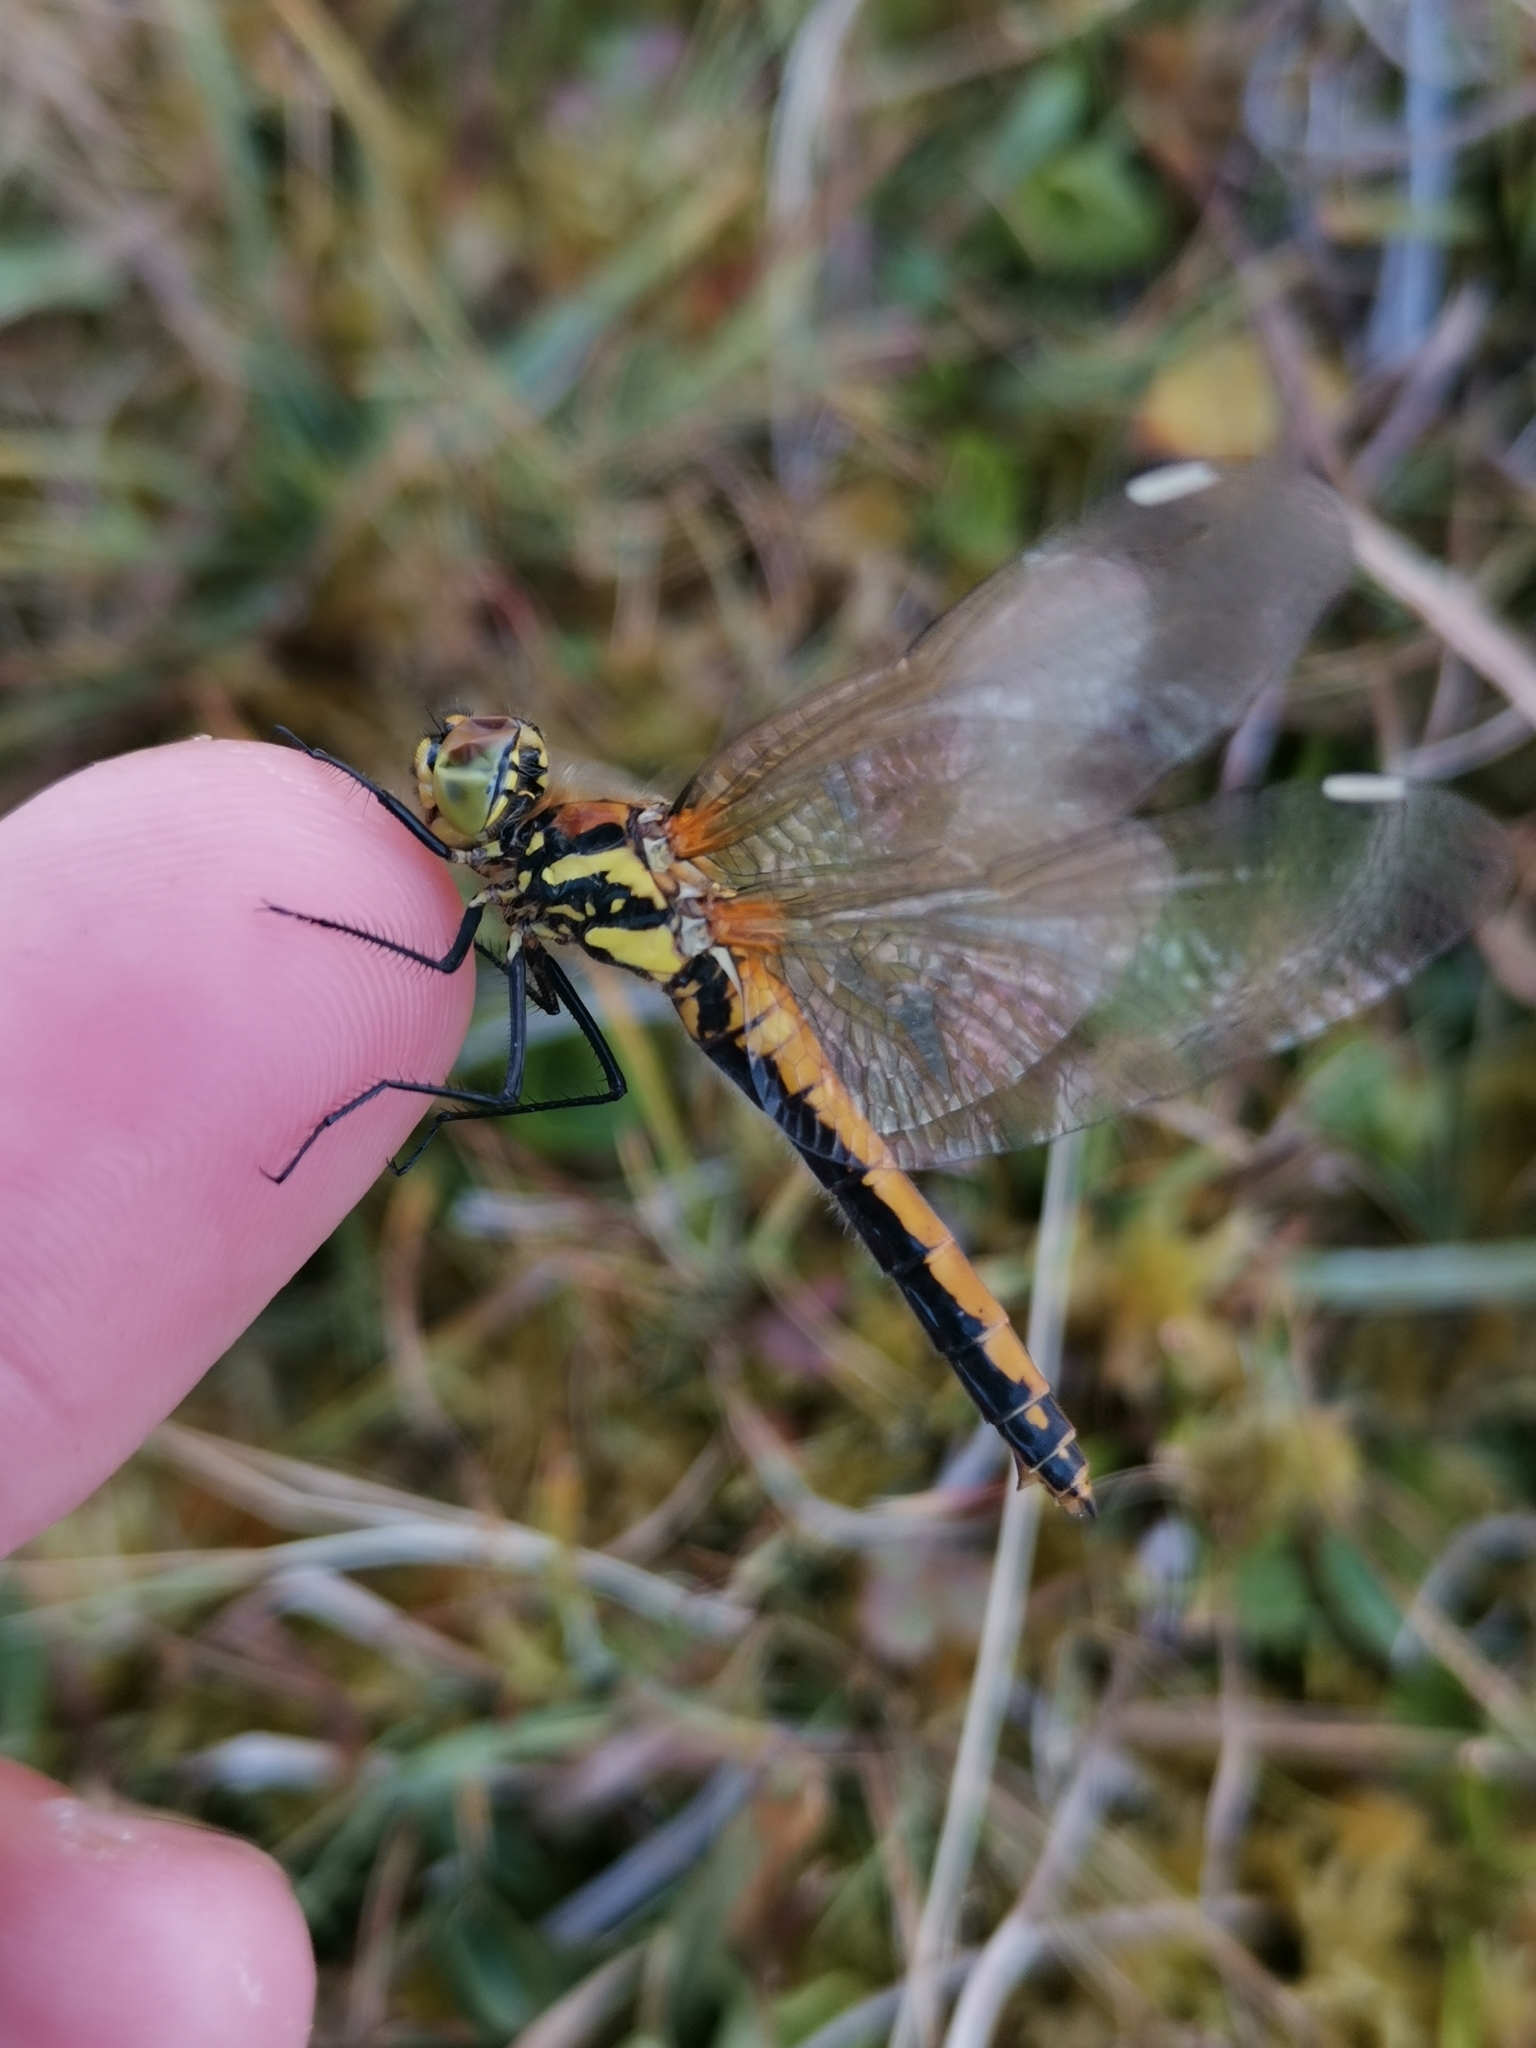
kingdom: Animalia
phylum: Arthropoda
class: Insecta
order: Odonata
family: Libellulidae
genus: Sympetrum
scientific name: Sympetrum danae
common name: Black darter
